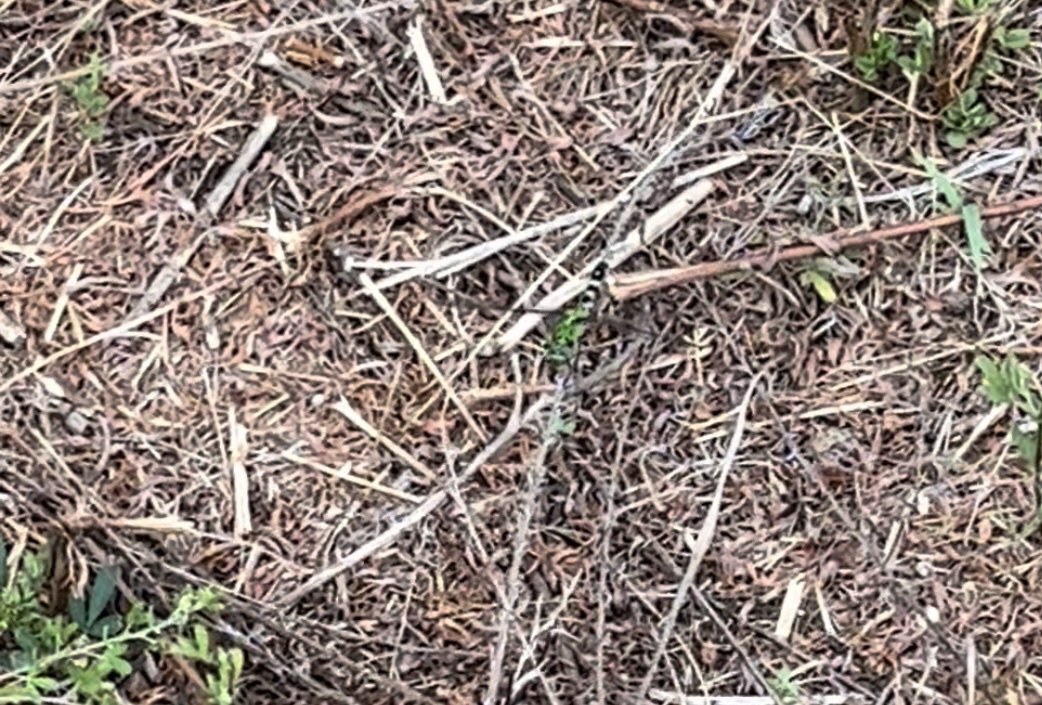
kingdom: Animalia
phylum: Arthropoda
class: Insecta
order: Odonata
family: Libellulidae
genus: Erythemis
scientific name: Erythemis simplicicollis
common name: Eastern pondhawk
